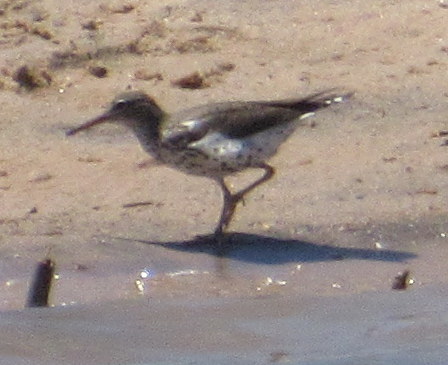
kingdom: Animalia
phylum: Chordata
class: Aves
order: Charadriiformes
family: Scolopacidae
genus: Actitis
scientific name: Actitis macularius
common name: Spotted sandpiper
